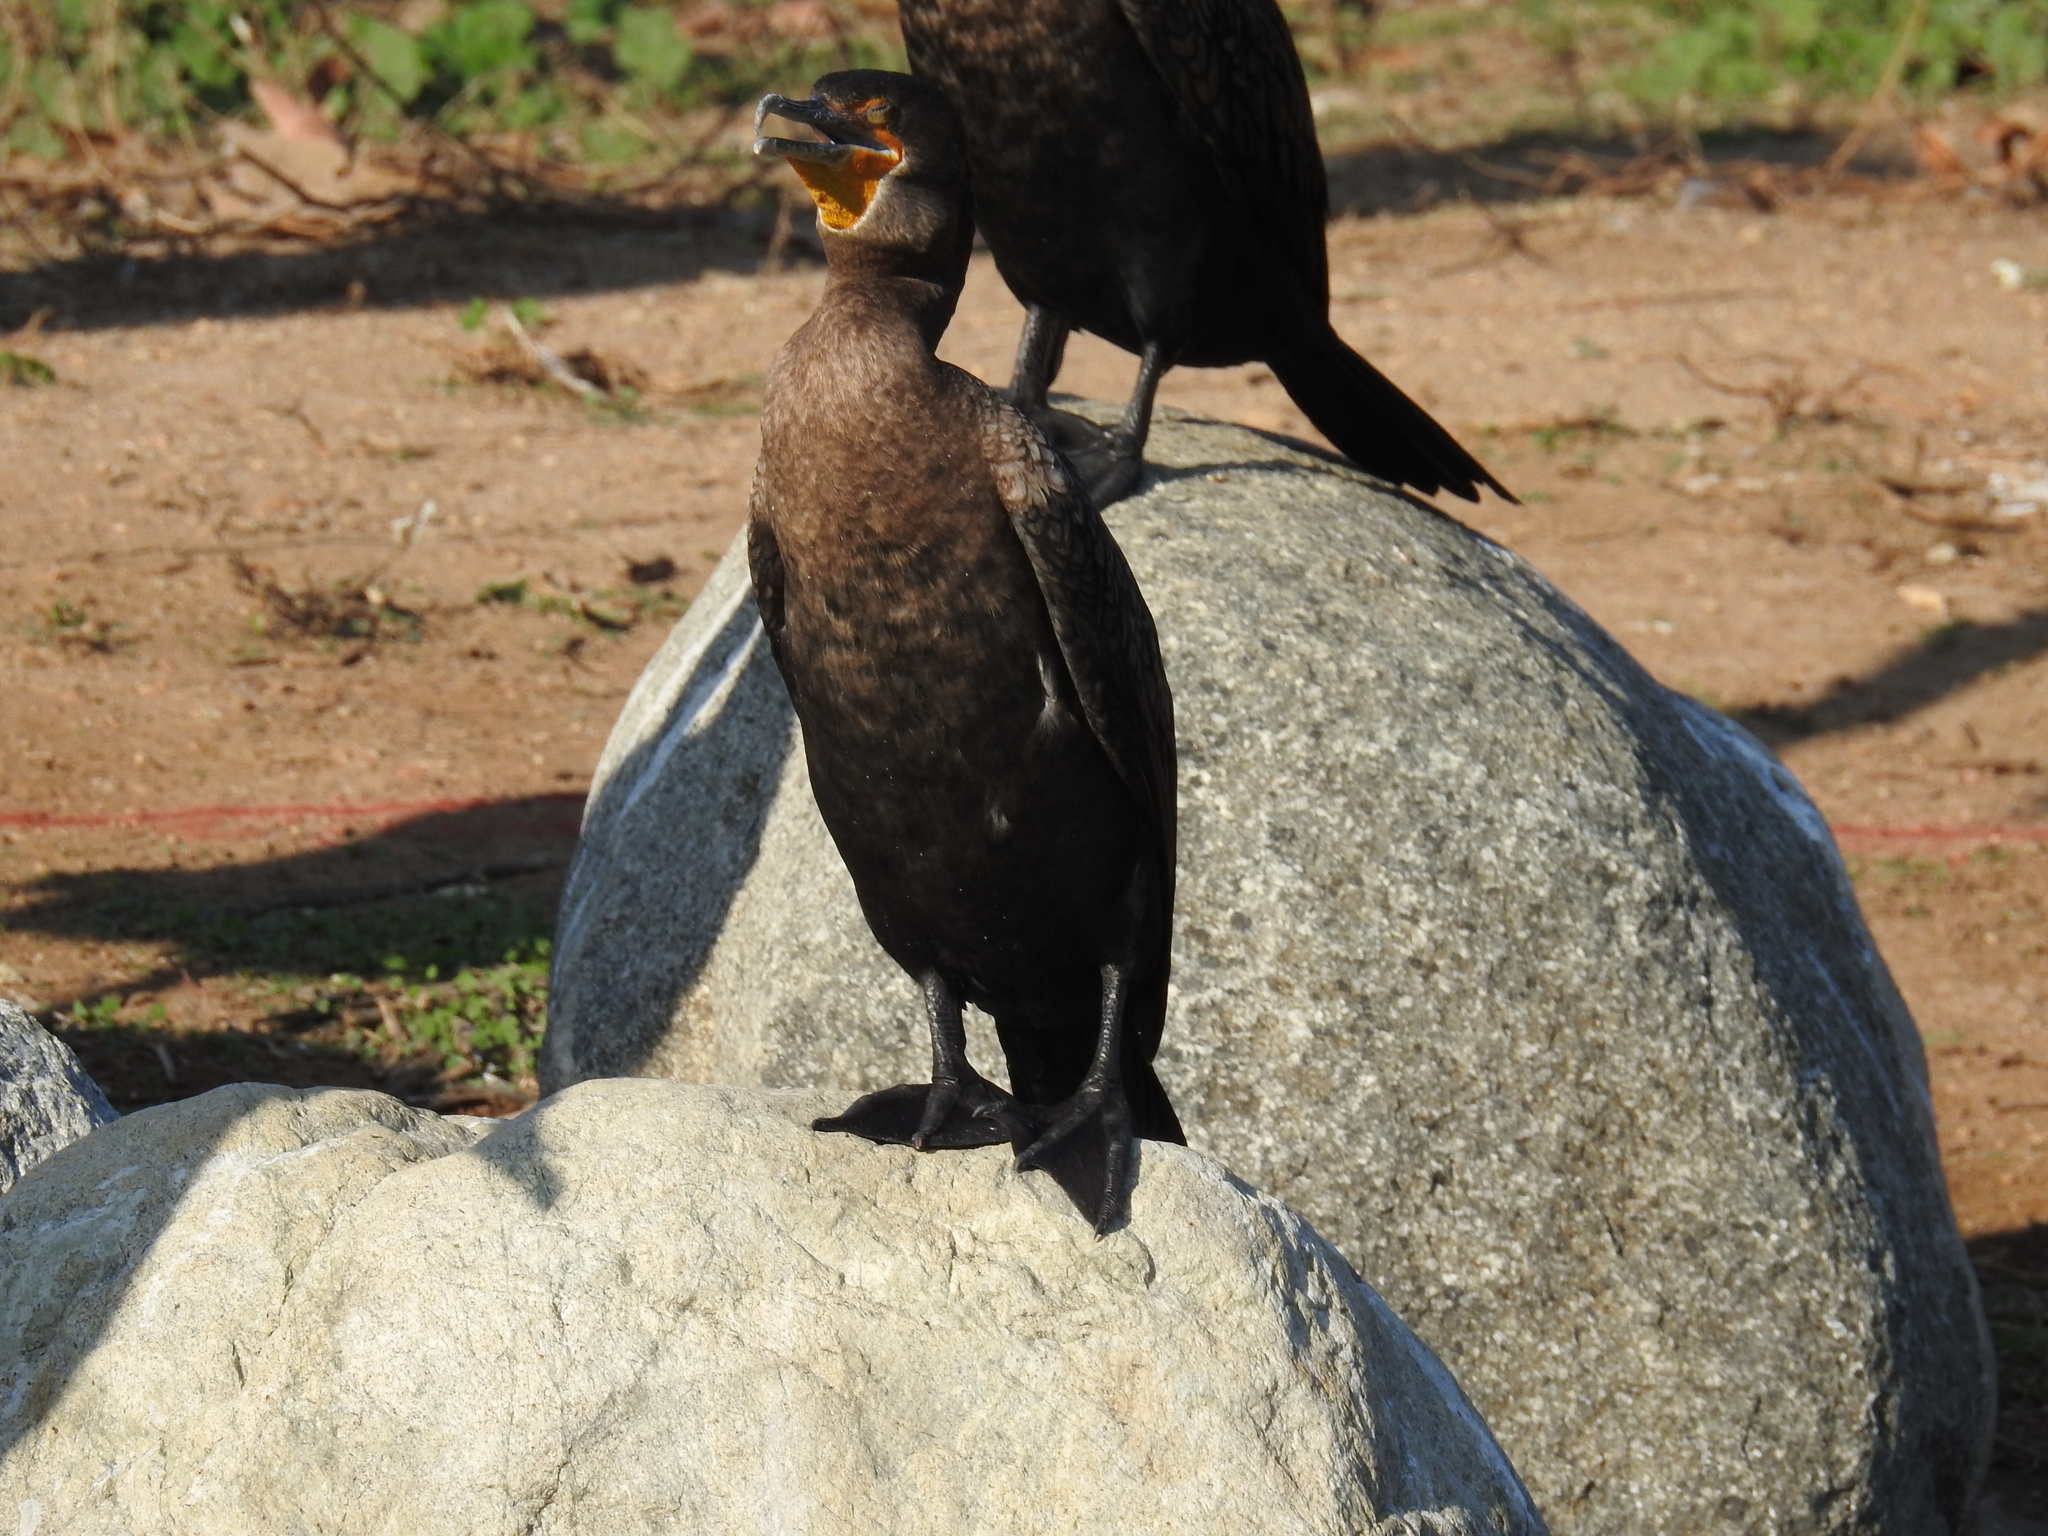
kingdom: Animalia
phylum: Chordata
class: Aves
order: Suliformes
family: Phalacrocoracidae
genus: Phalacrocorax
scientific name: Phalacrocorax auritus
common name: Double-crested cormorant
